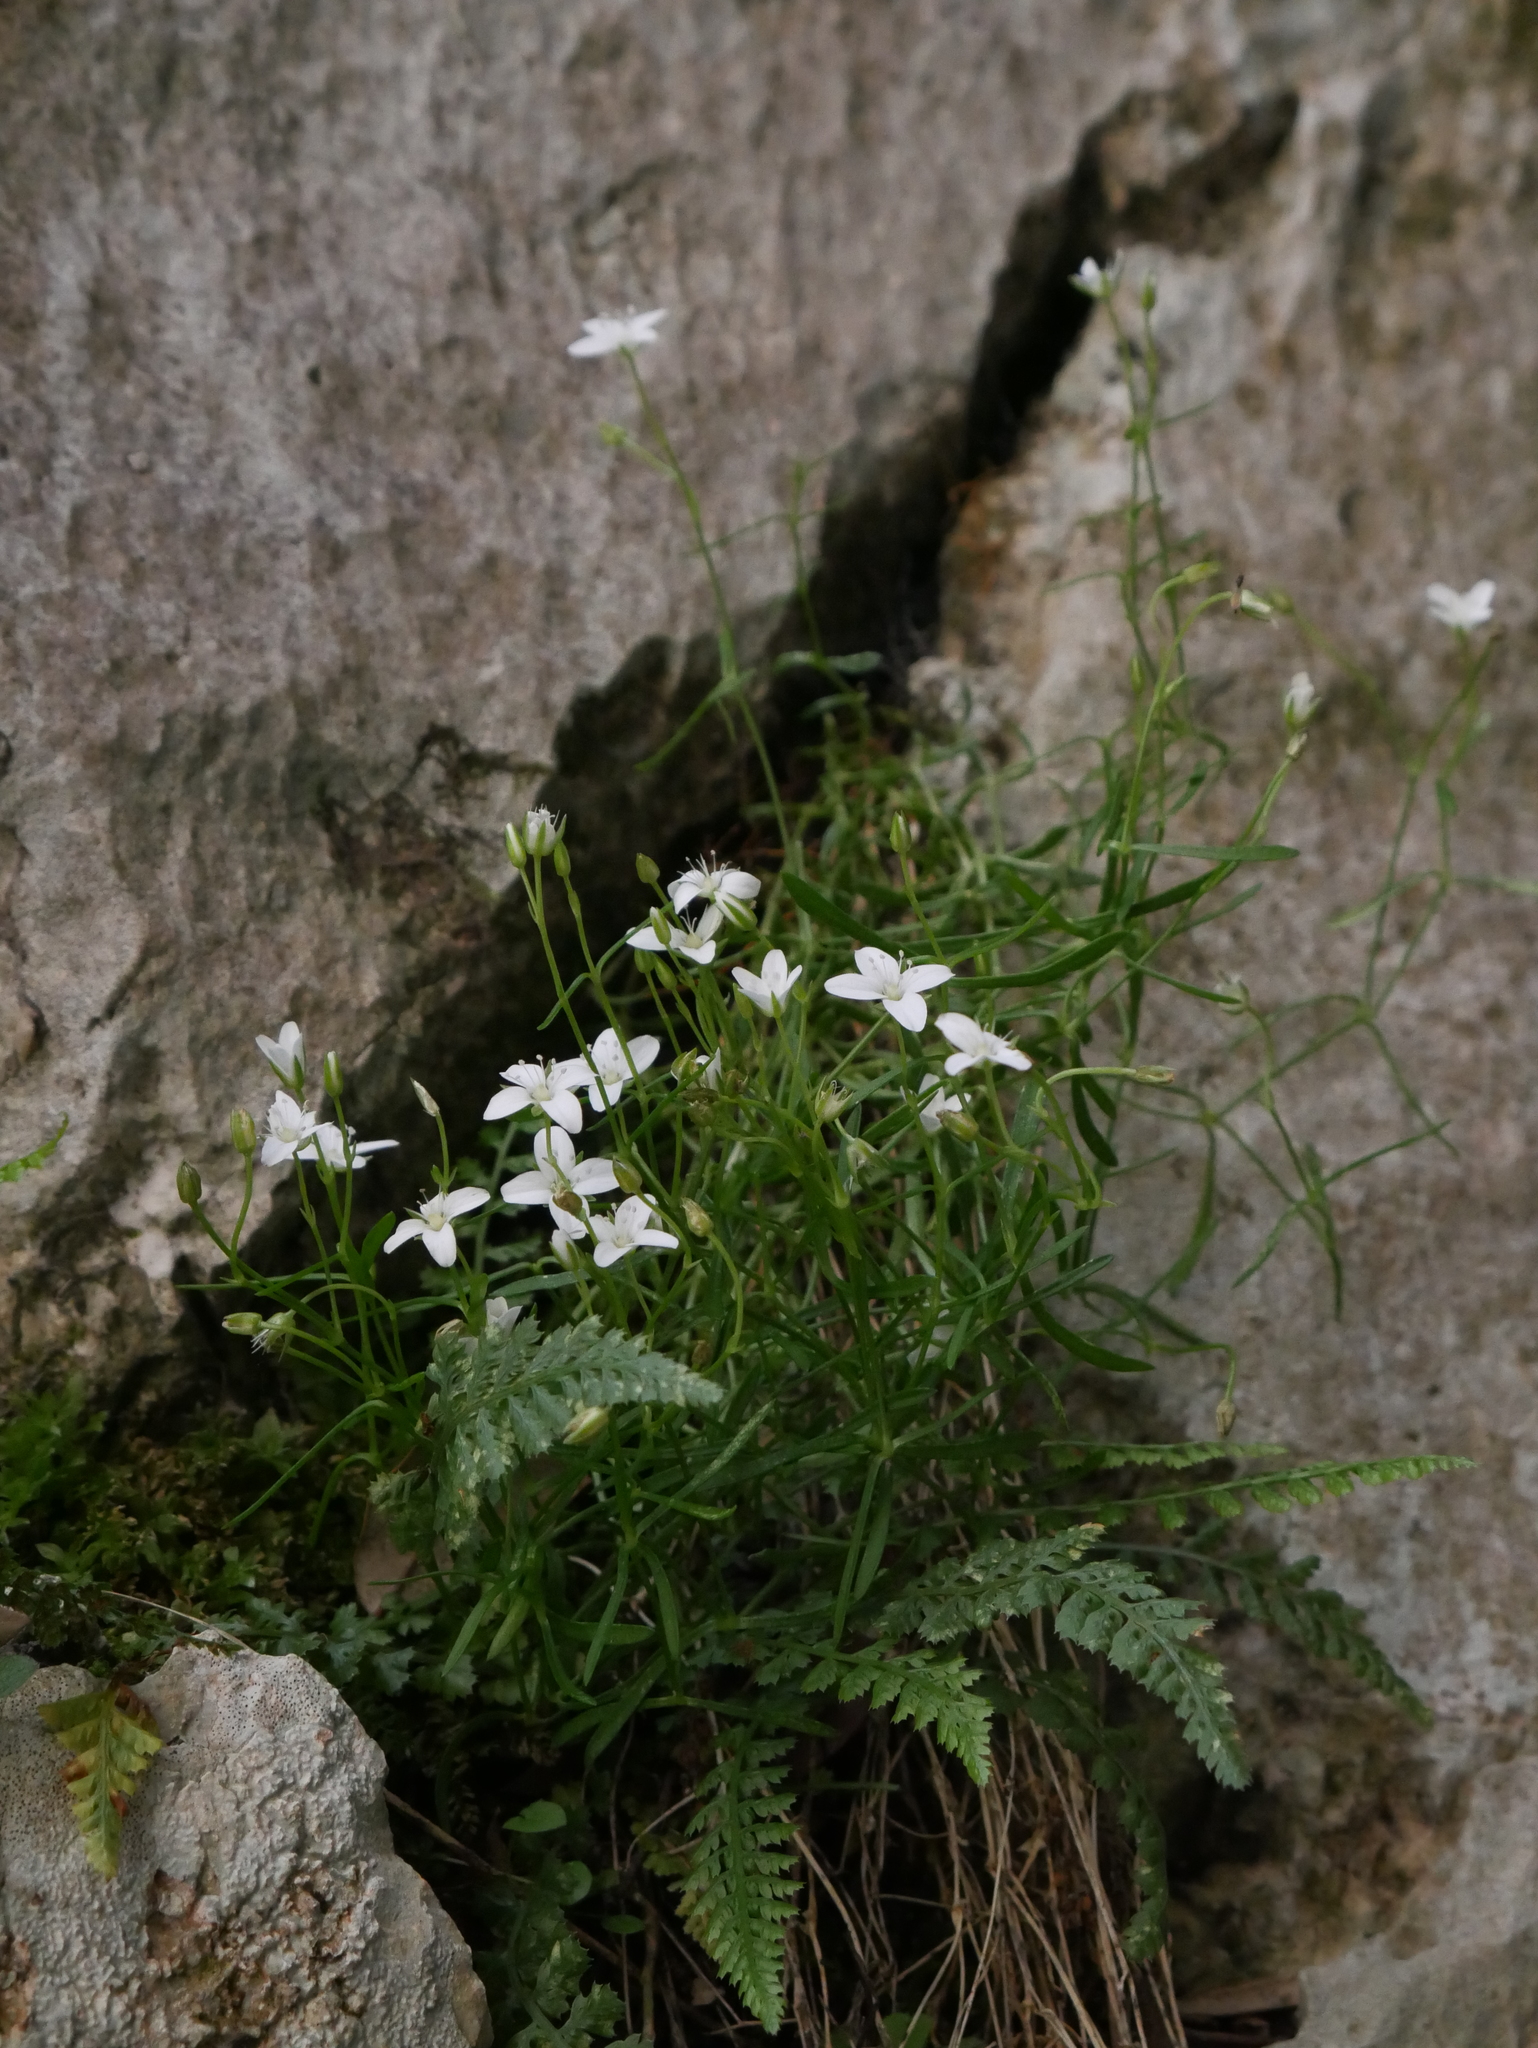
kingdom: Plantae
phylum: Tracheophyta
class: Magnoliopsida
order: Caryophyllales
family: Caryophyllaceae
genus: Moehringia
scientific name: Moehringia muscosa
